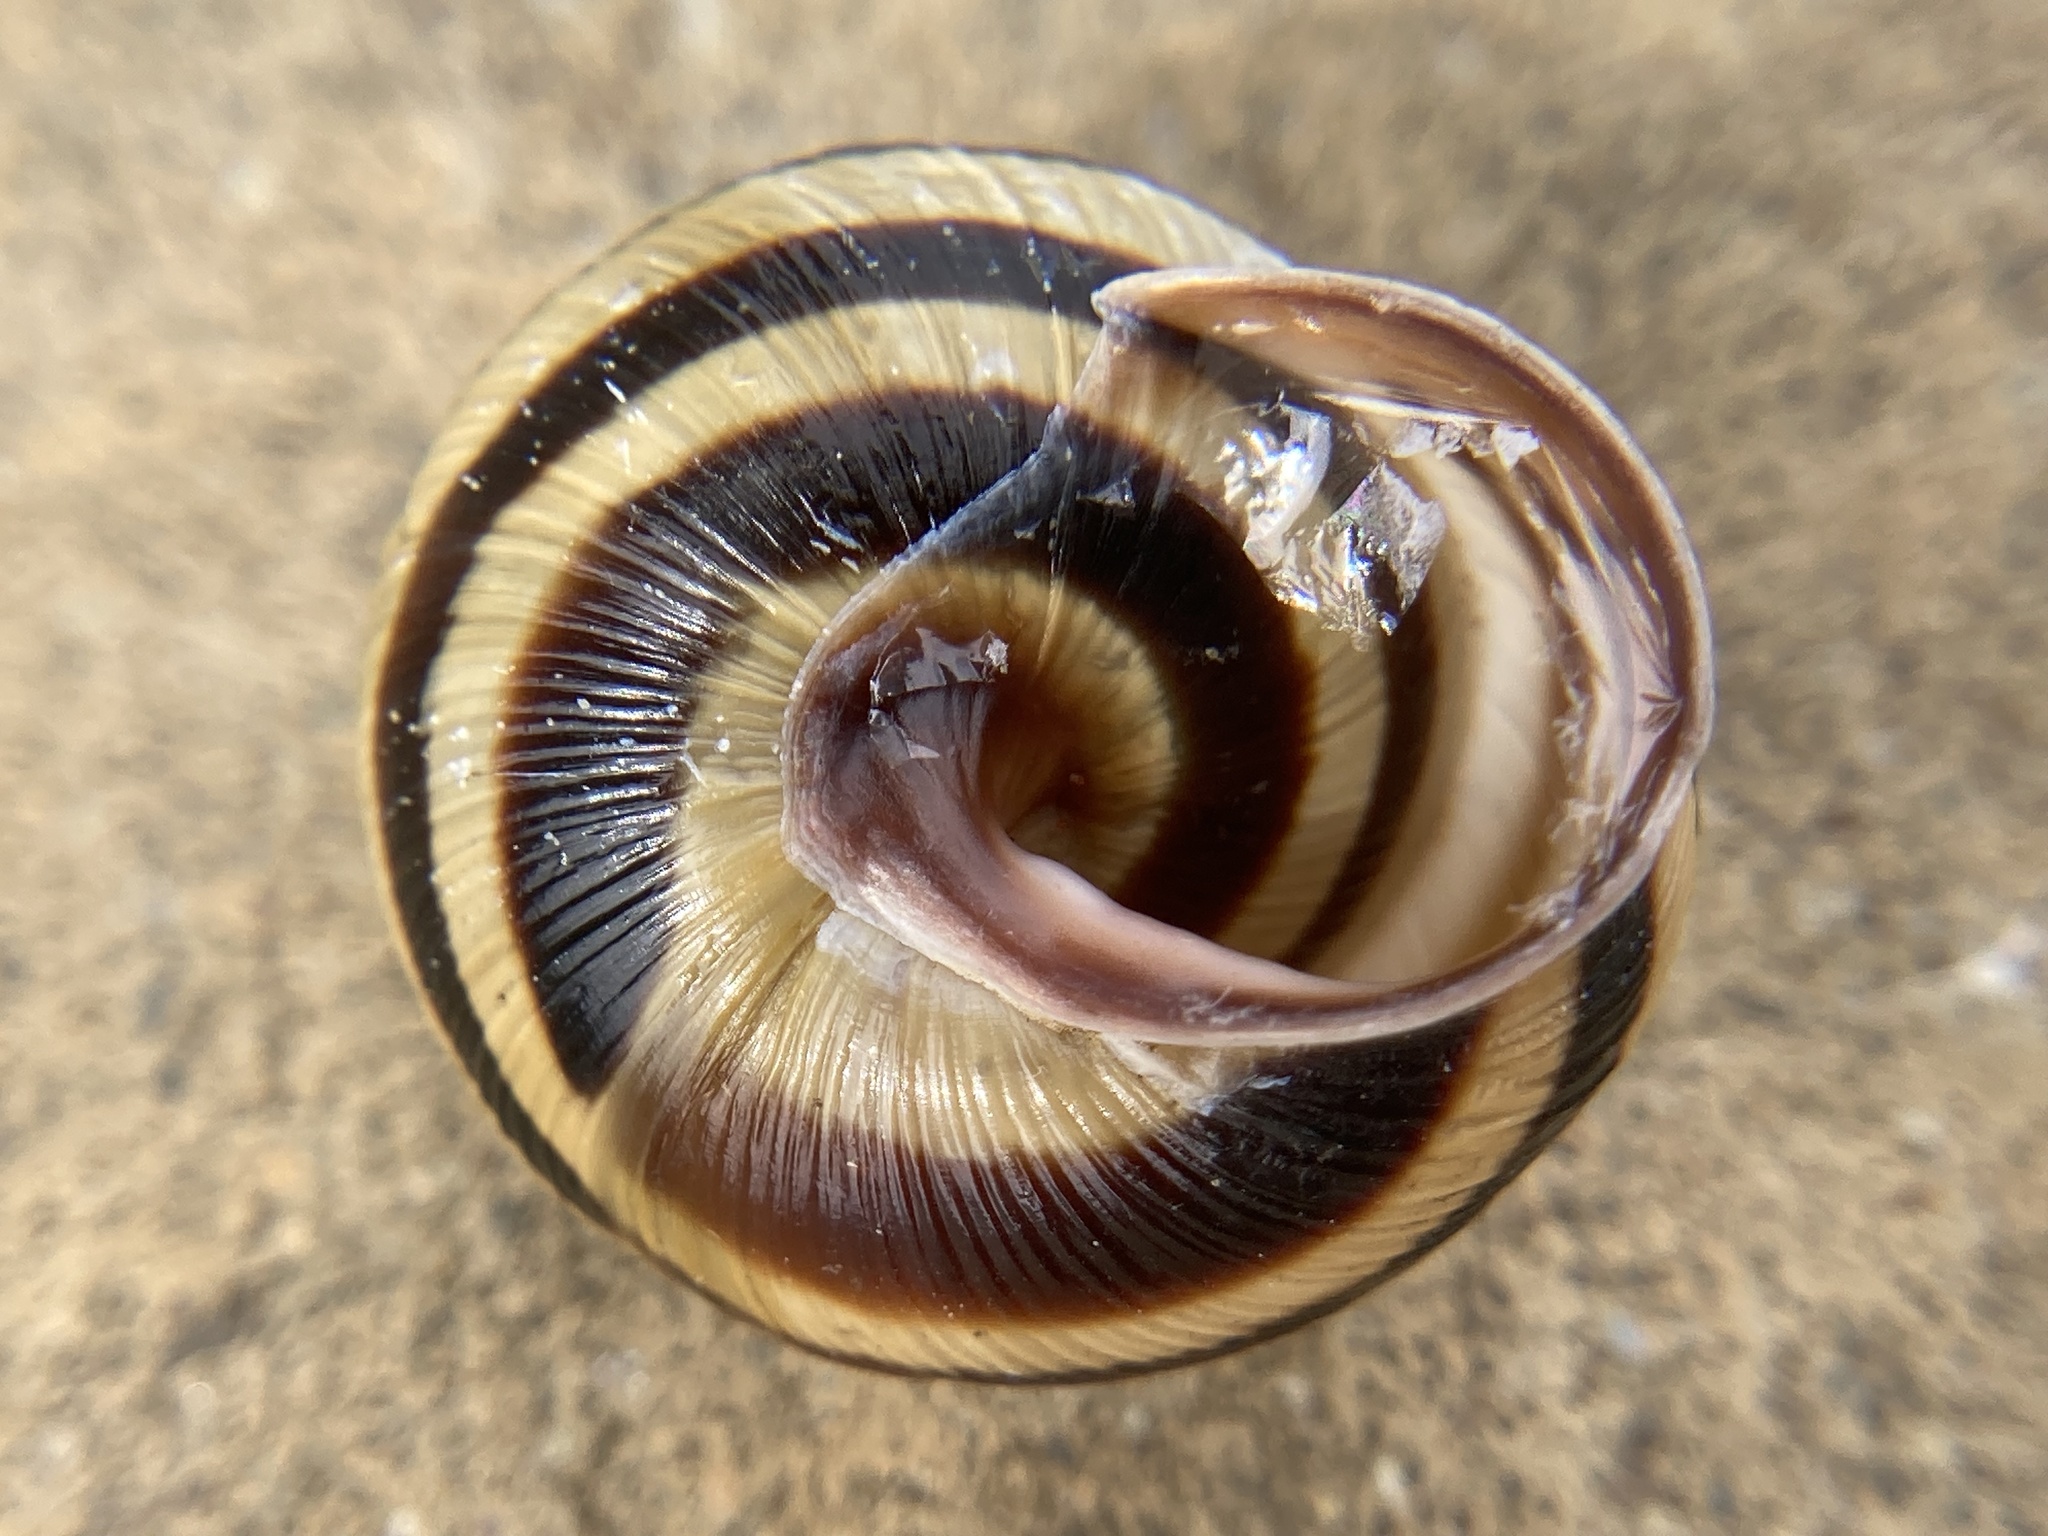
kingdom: Animalia
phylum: Mollusca
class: Gastropoda
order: Stylommatophora
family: Helicidae
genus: Caucasotachea
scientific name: Caucasotachea vindobonensis
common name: European helicid land snail
